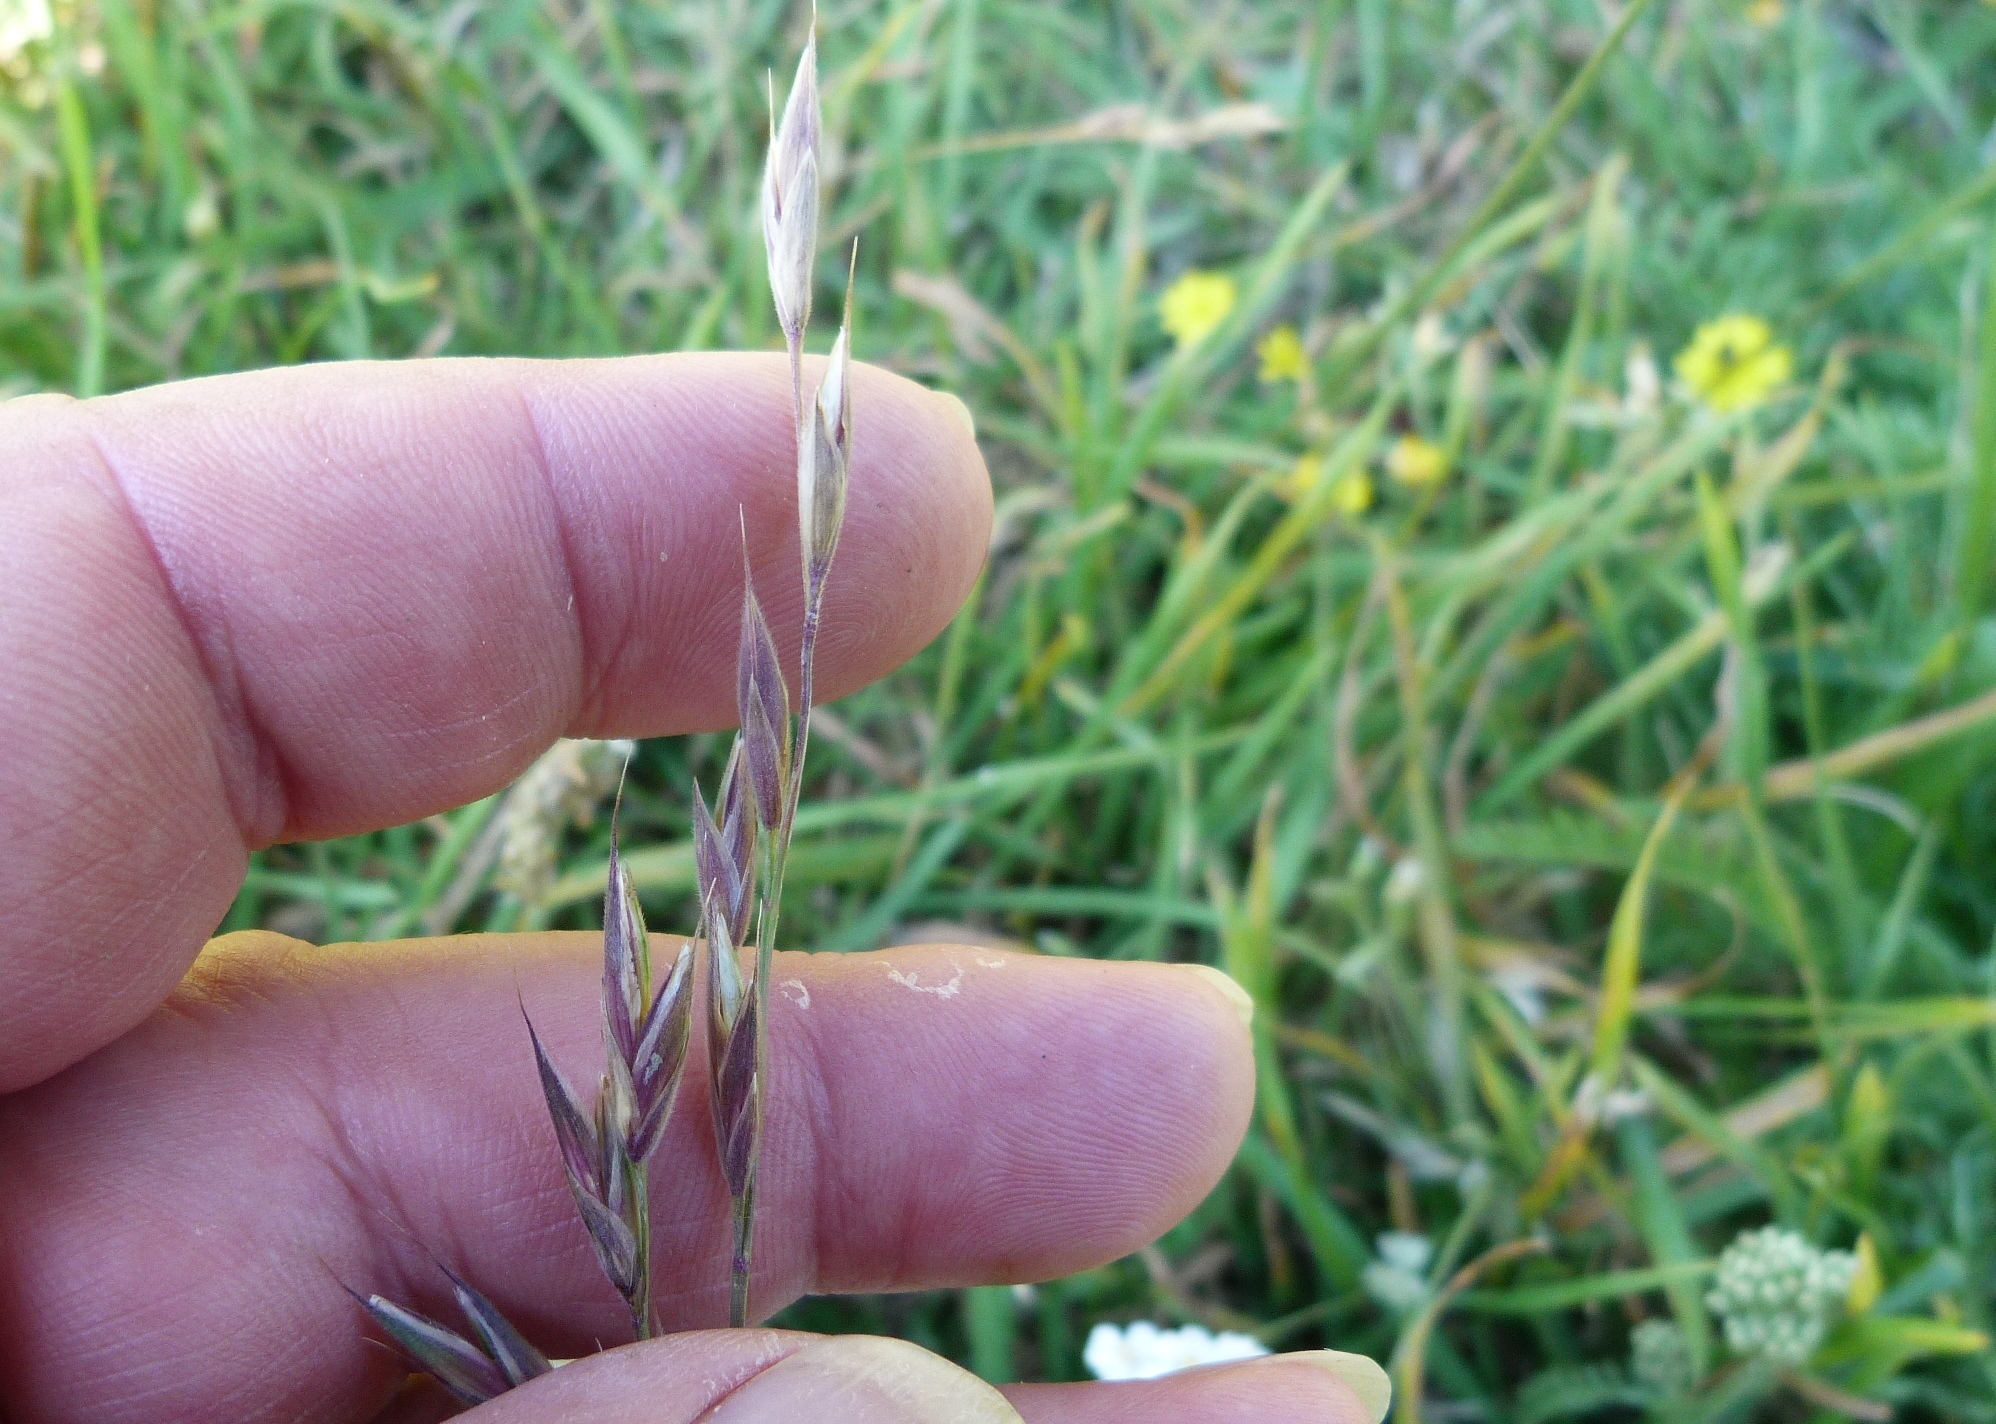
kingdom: Plantae
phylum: Tracheophyta
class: Liliopsida
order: Poales
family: Poaceae
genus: Bromus
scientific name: Bromus catharticus
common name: Rescuegrass
